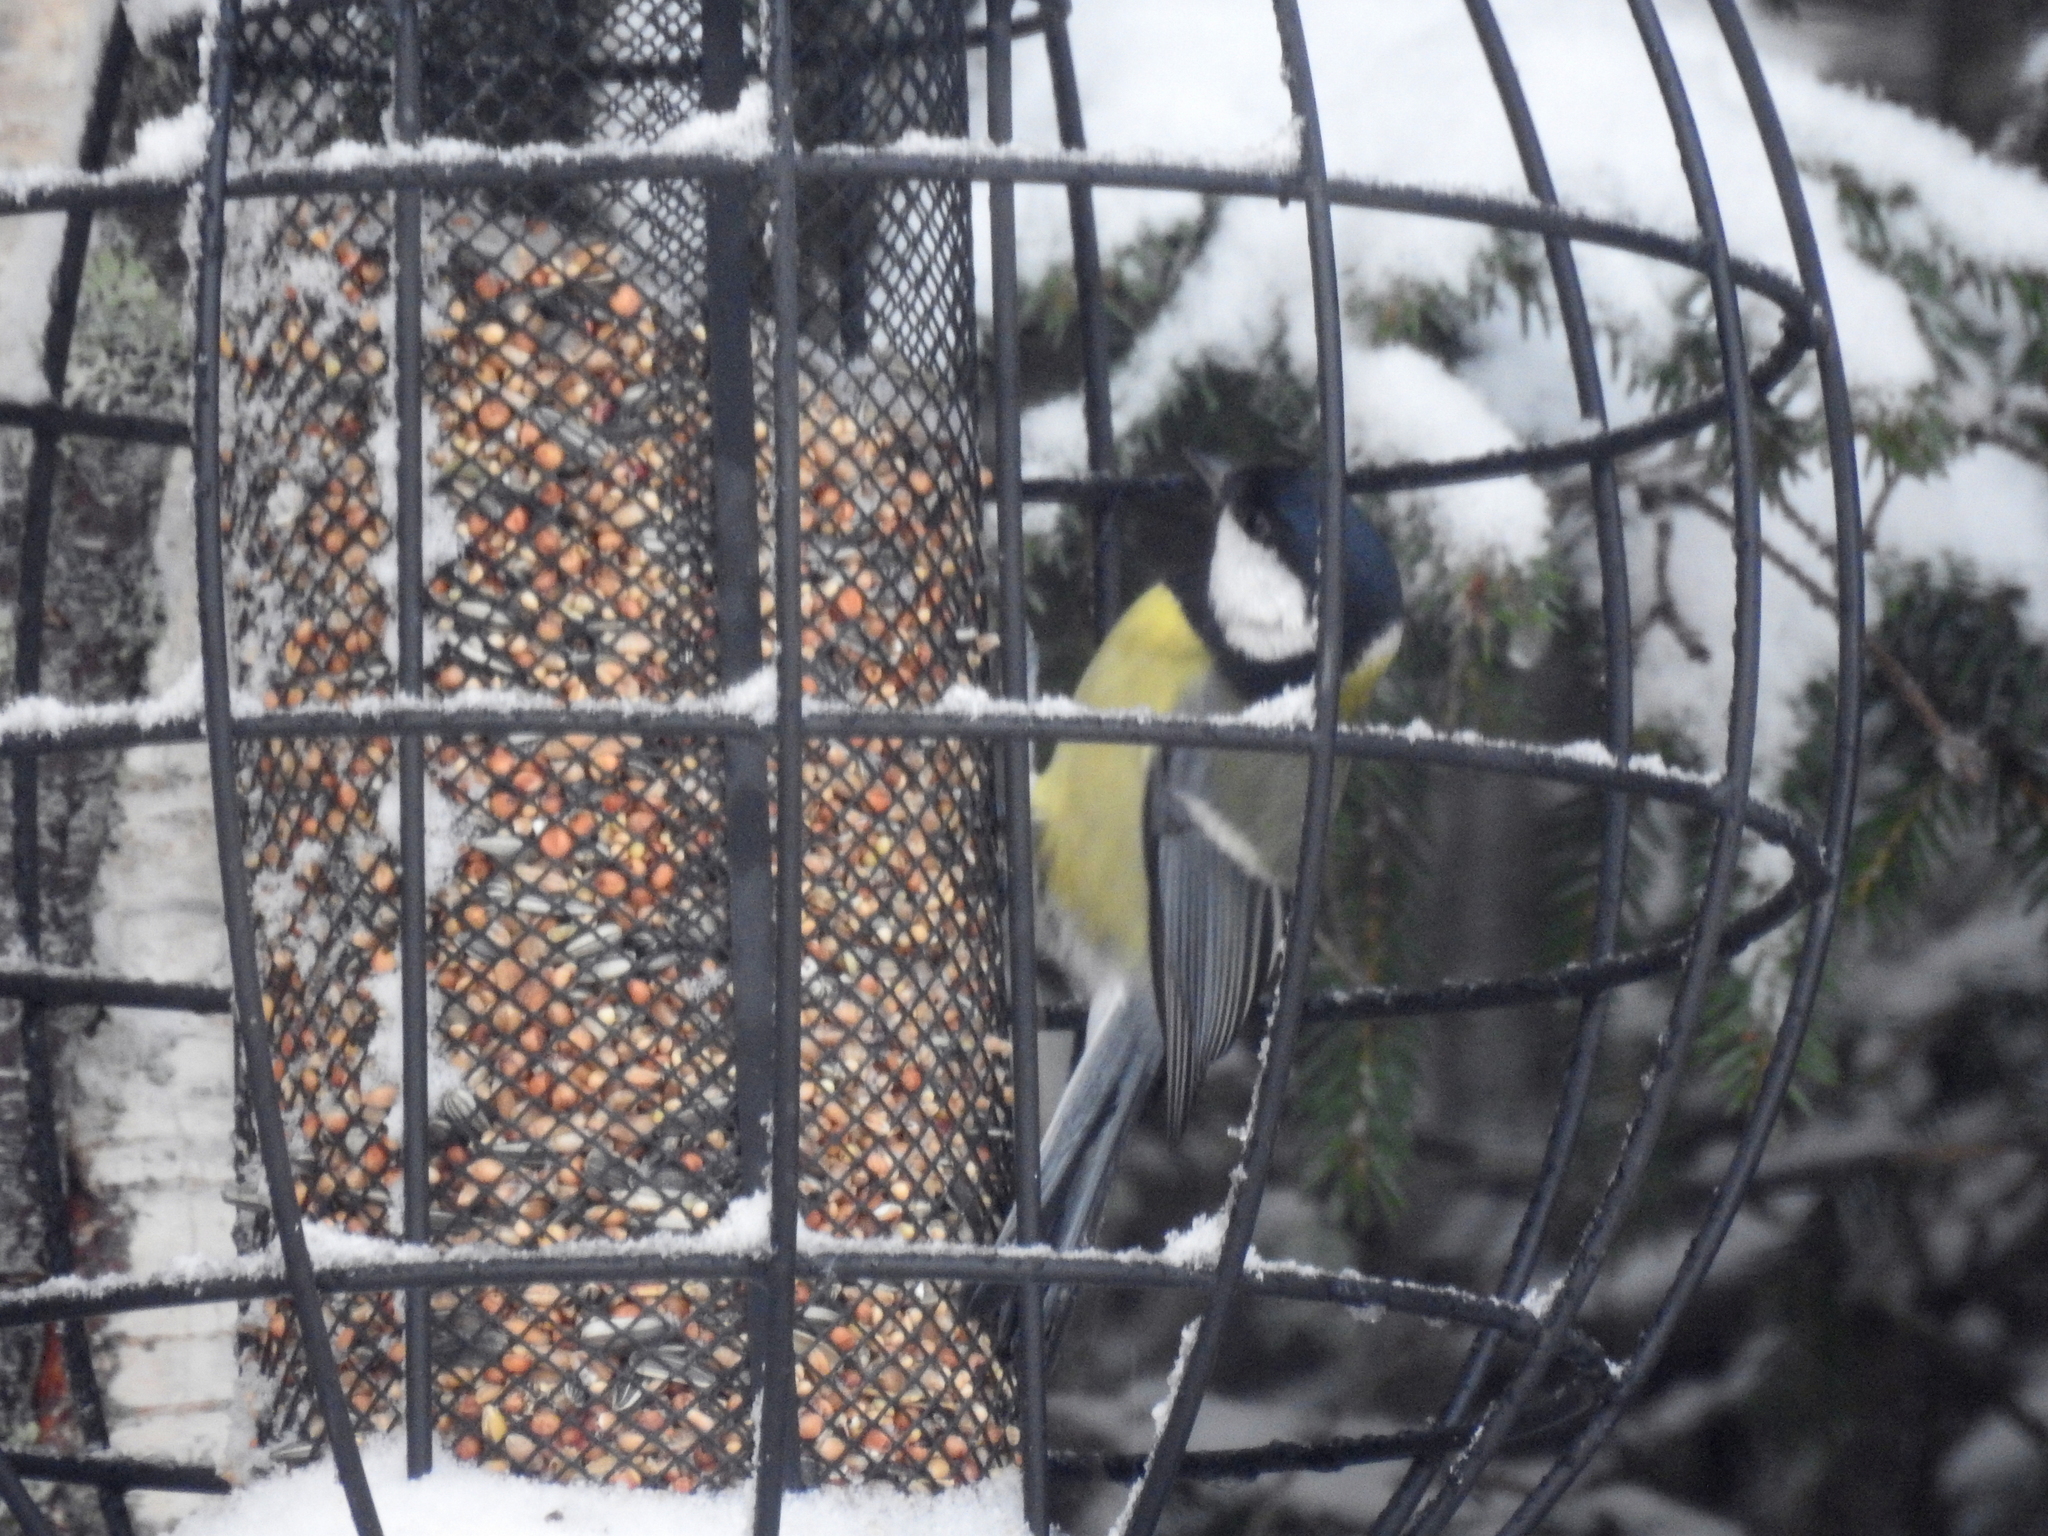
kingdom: Animalia
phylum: Chordata
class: Aves
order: Passeriformes
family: Paridae
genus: Parus
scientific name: Parus major
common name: Great tit
